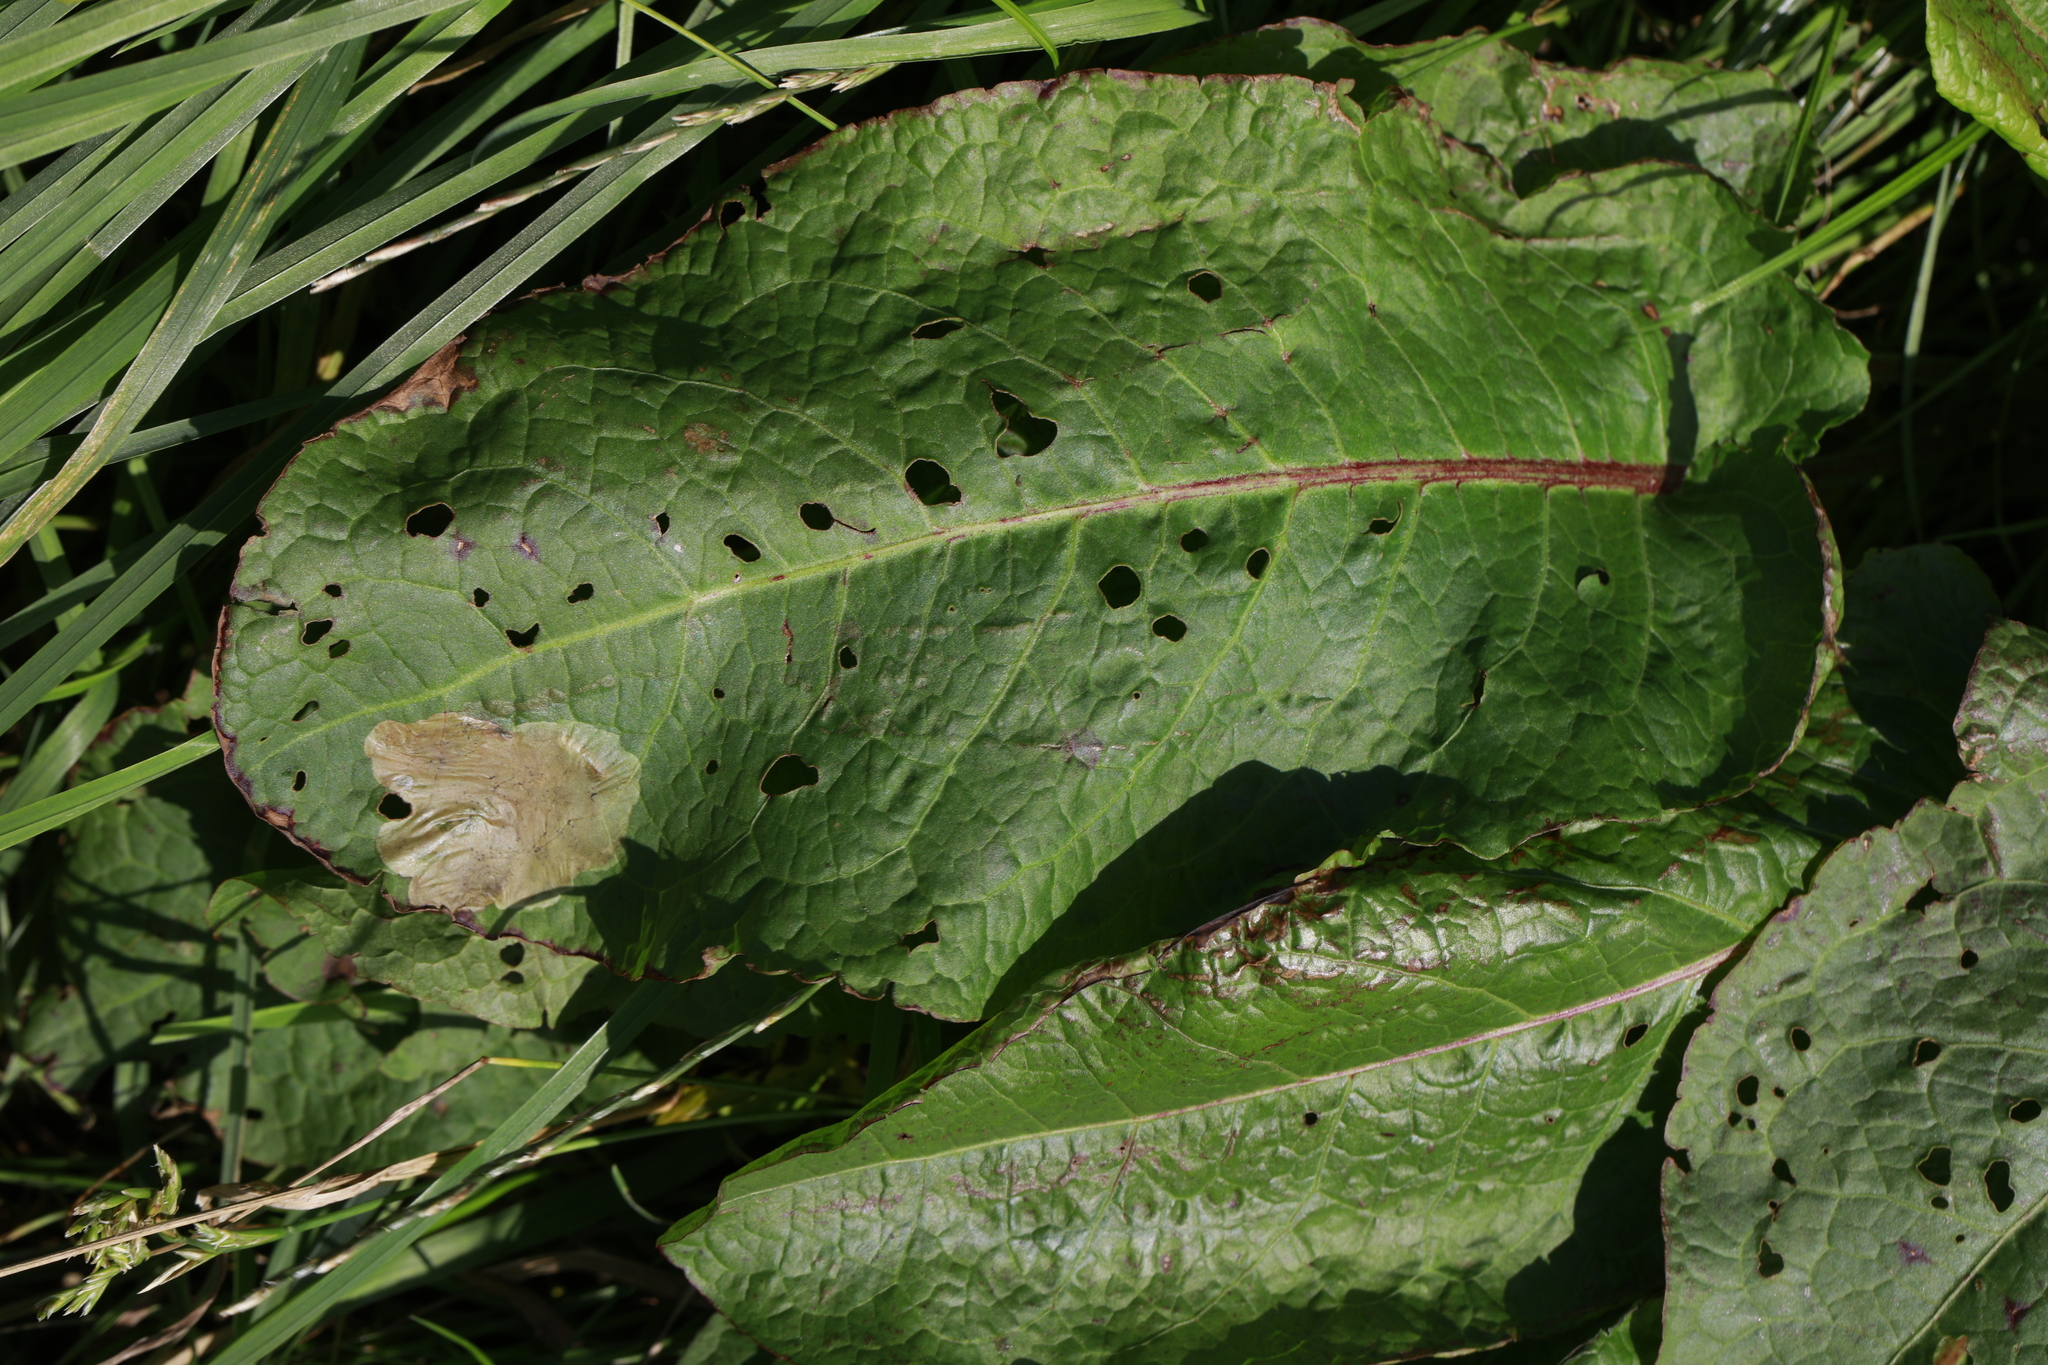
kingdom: Plantae
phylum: Tracheophyta
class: Magnoliopsida
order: Caryophyllales
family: Polygonaceae
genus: Rumex
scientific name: Rumex obtusifolius
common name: Bitter dock
